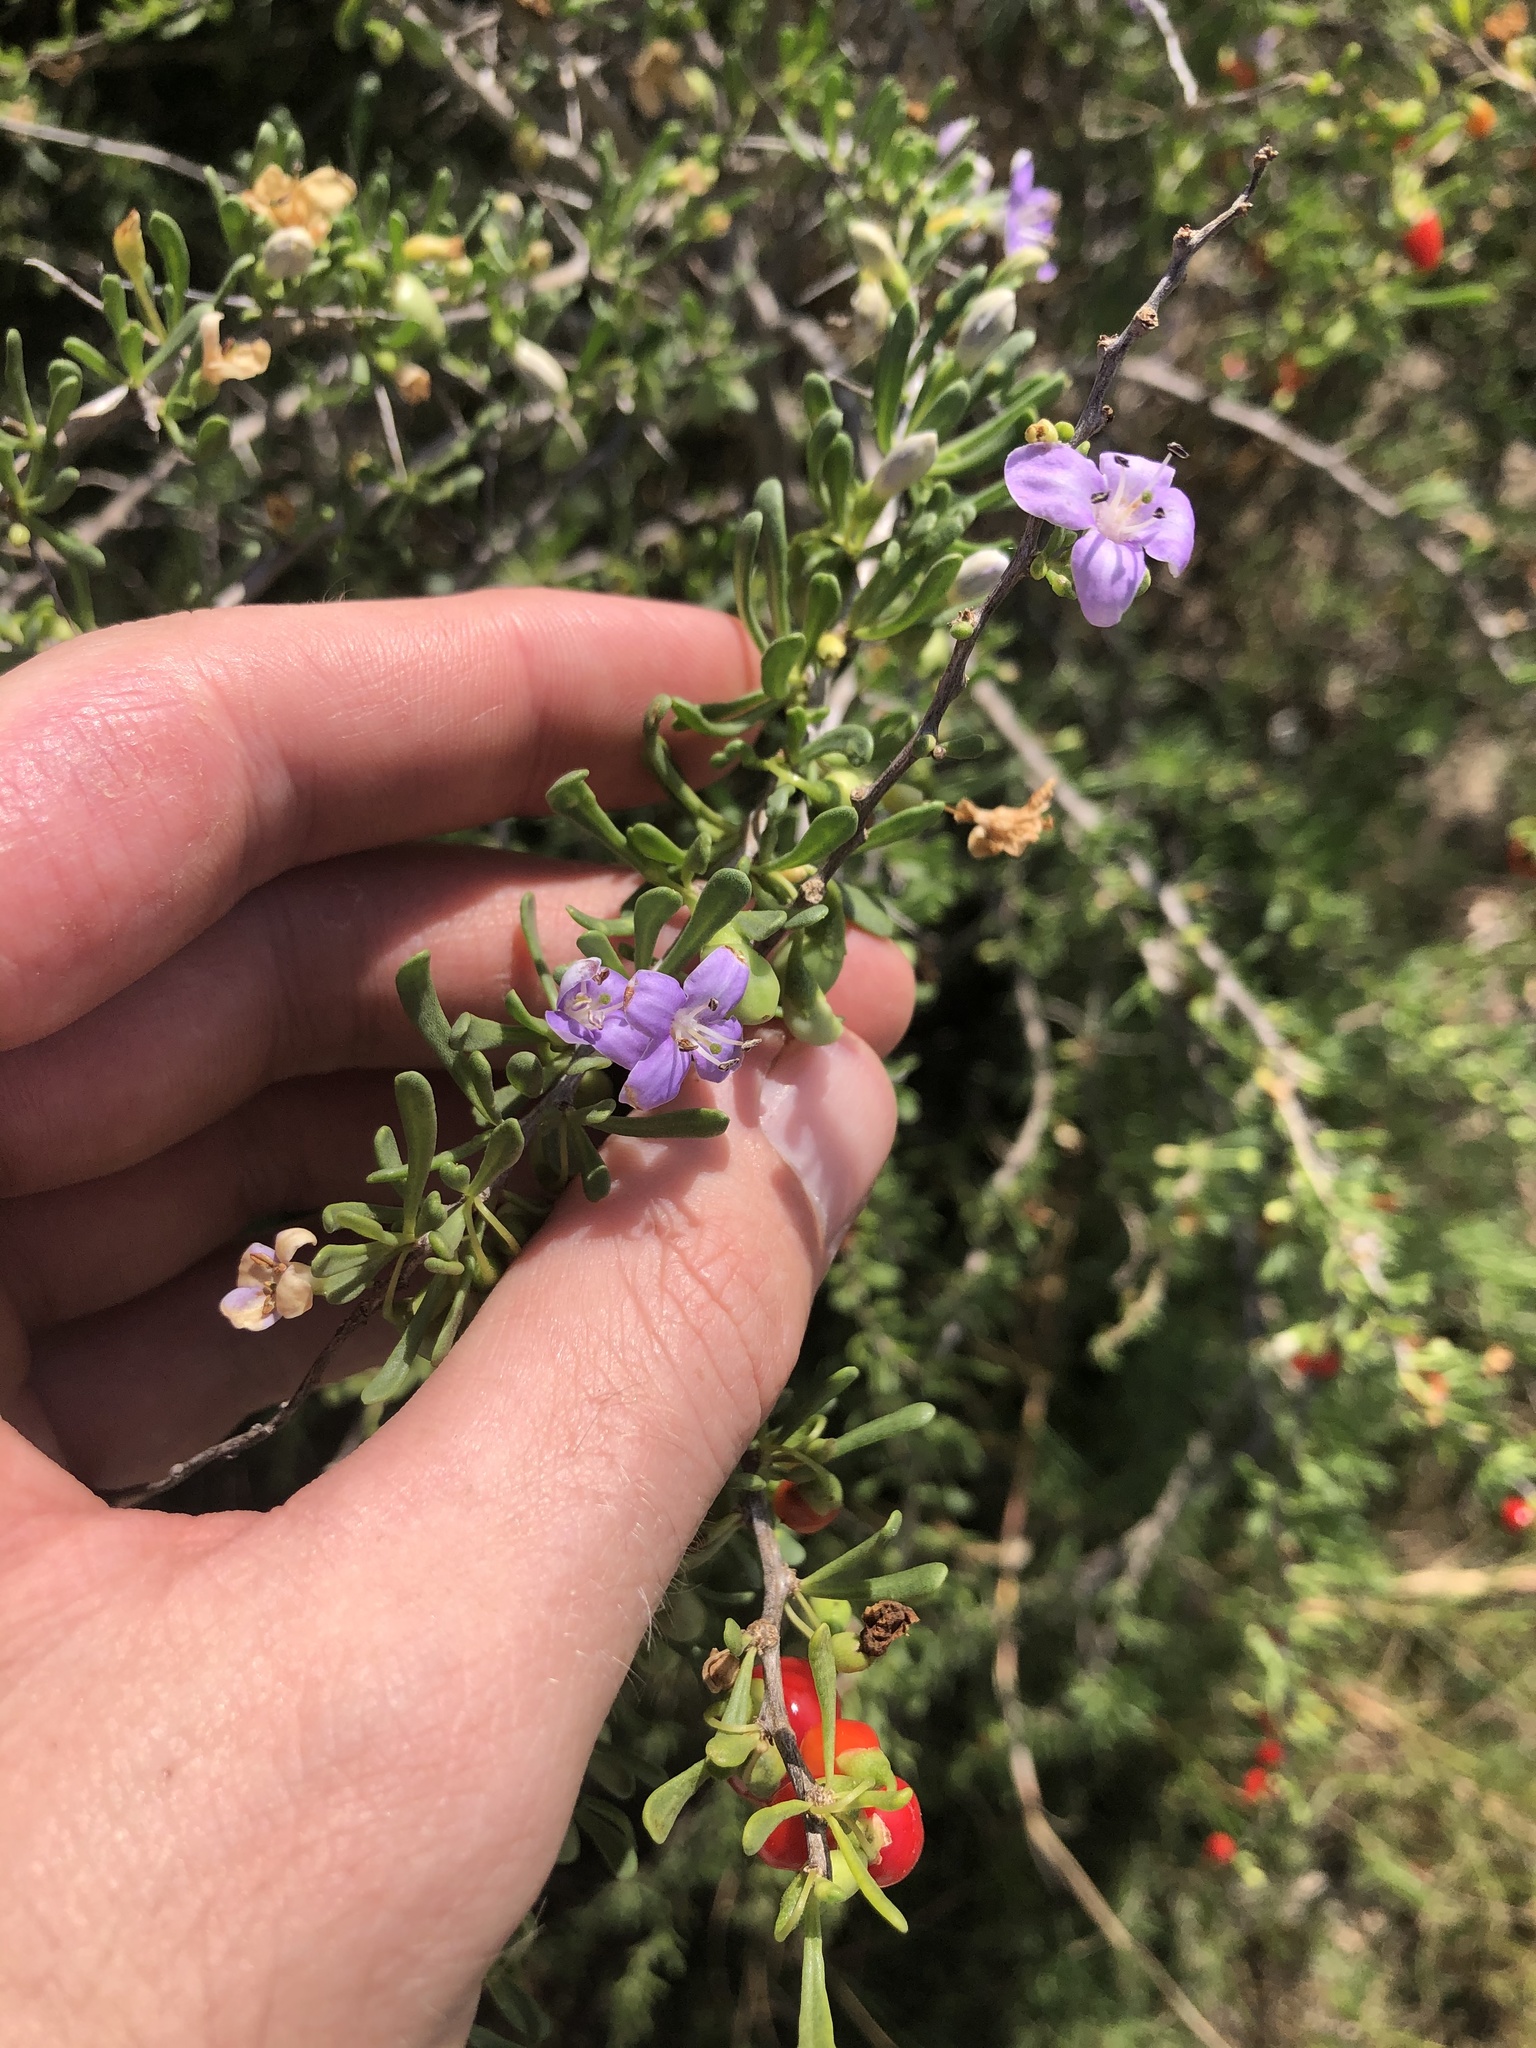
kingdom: Plantae
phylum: Tracheophyta
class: Magnoliopsida
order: Solanales
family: Solanaceae
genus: Lycium
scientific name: Lycium carolinianum
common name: Christmasberry
